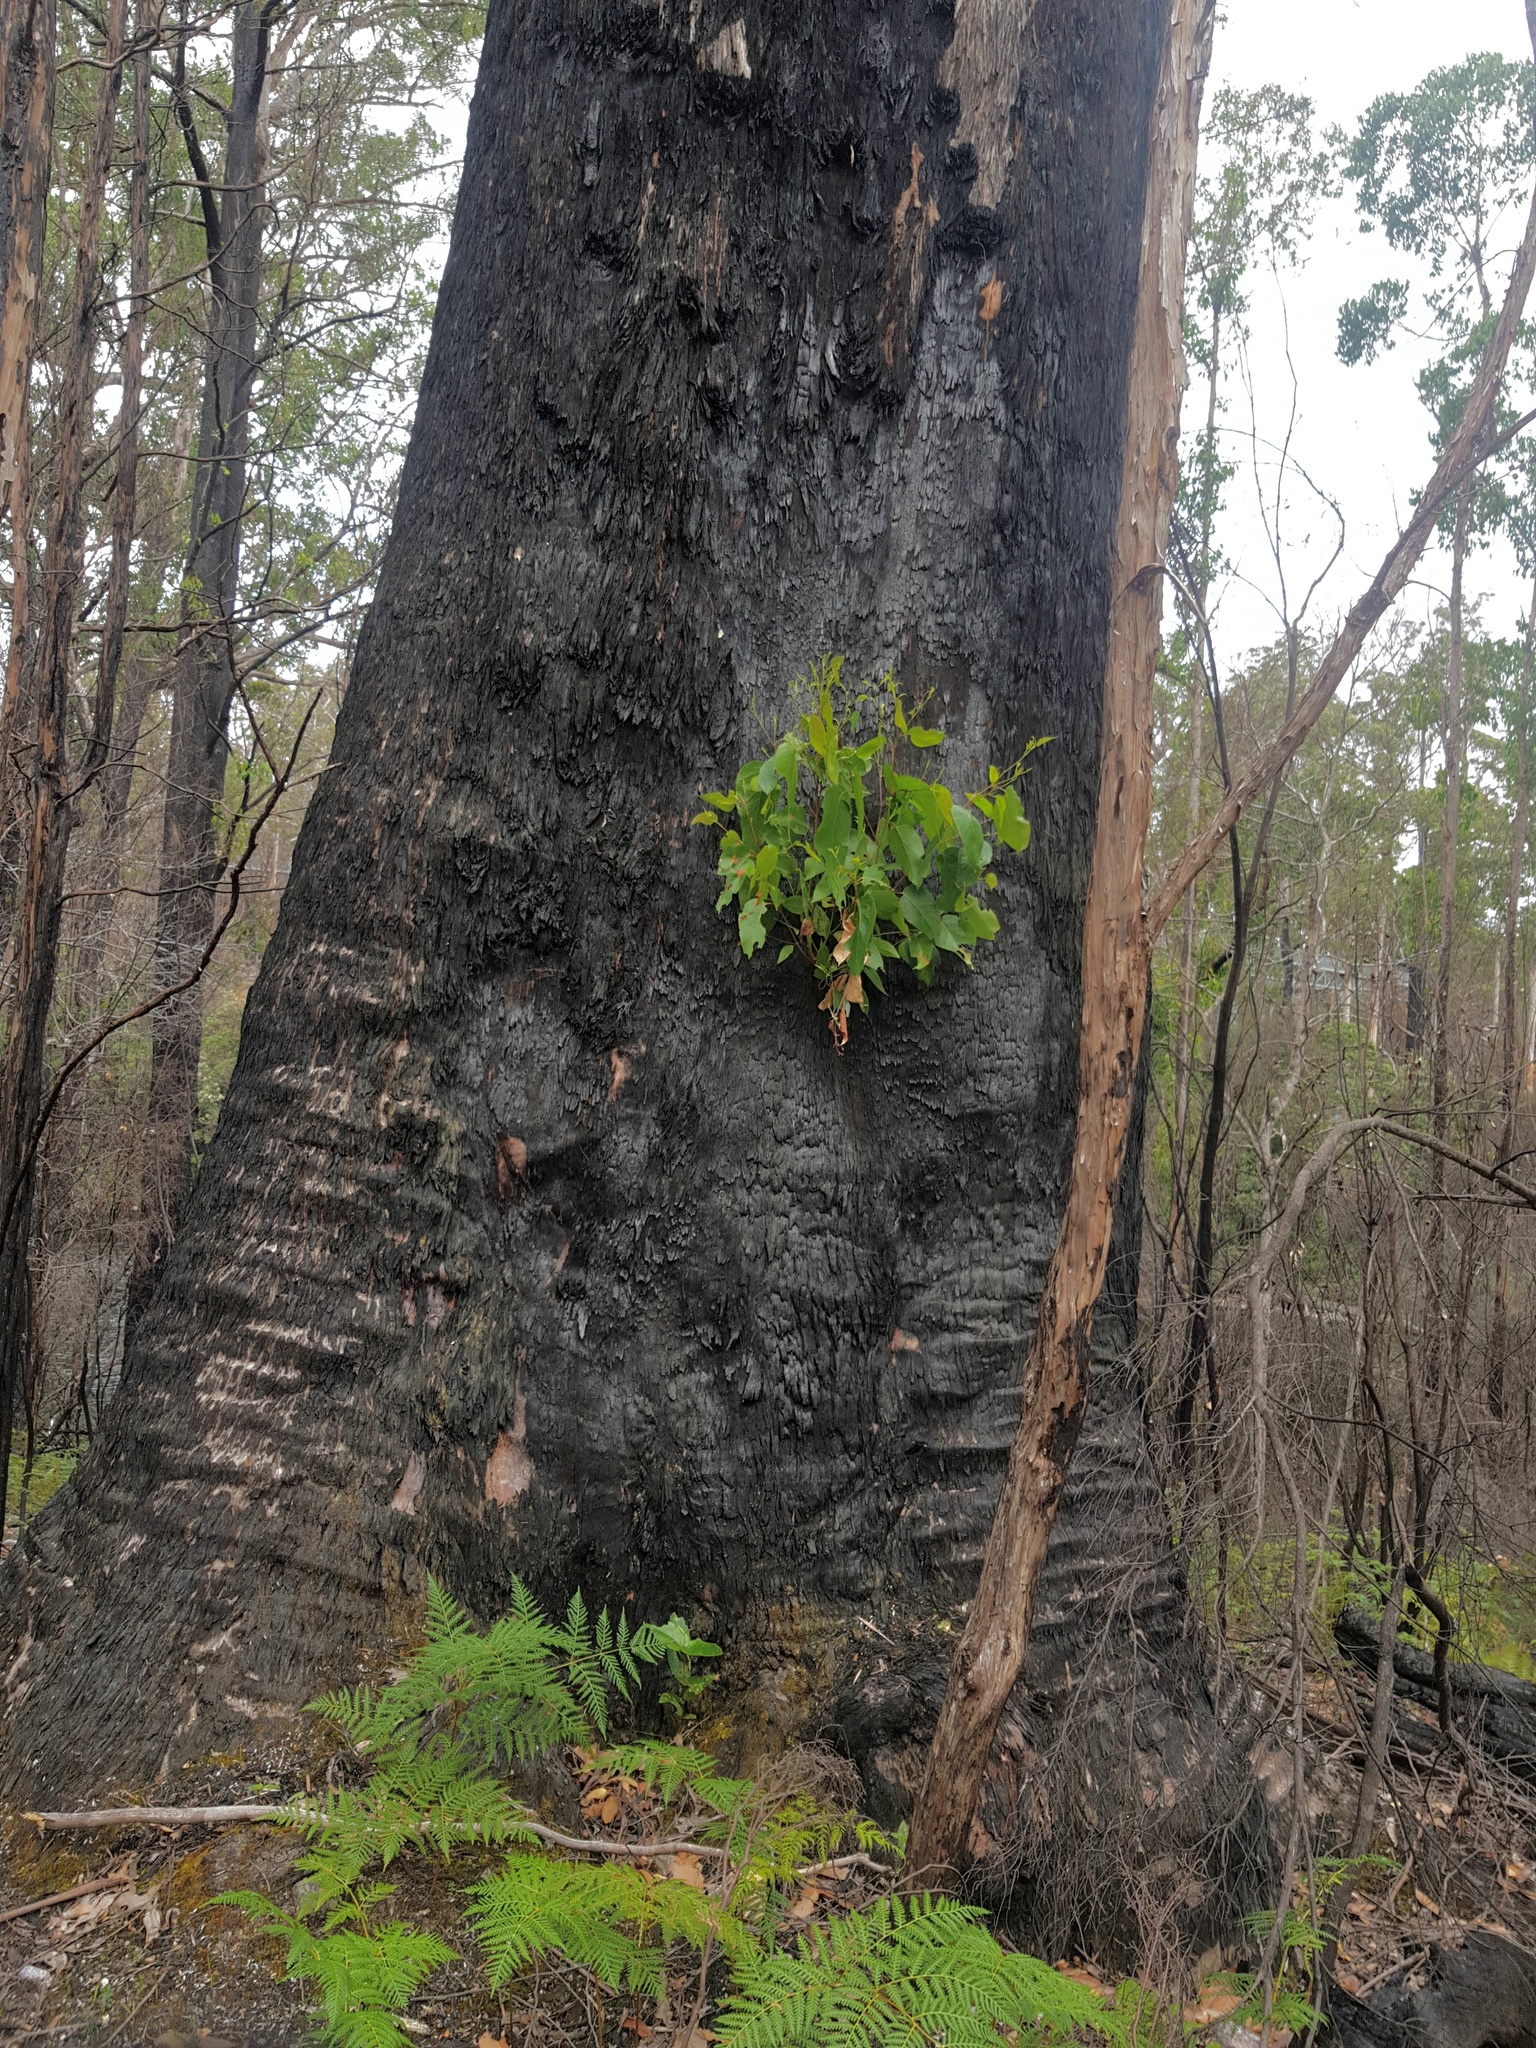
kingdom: Plantae
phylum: Tracheophyta
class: Magnoliopsida
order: Myrtales
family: Myrtaceae
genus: Eucalyptus
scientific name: Eucalyptus obliqua
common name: Messmate stringybark
